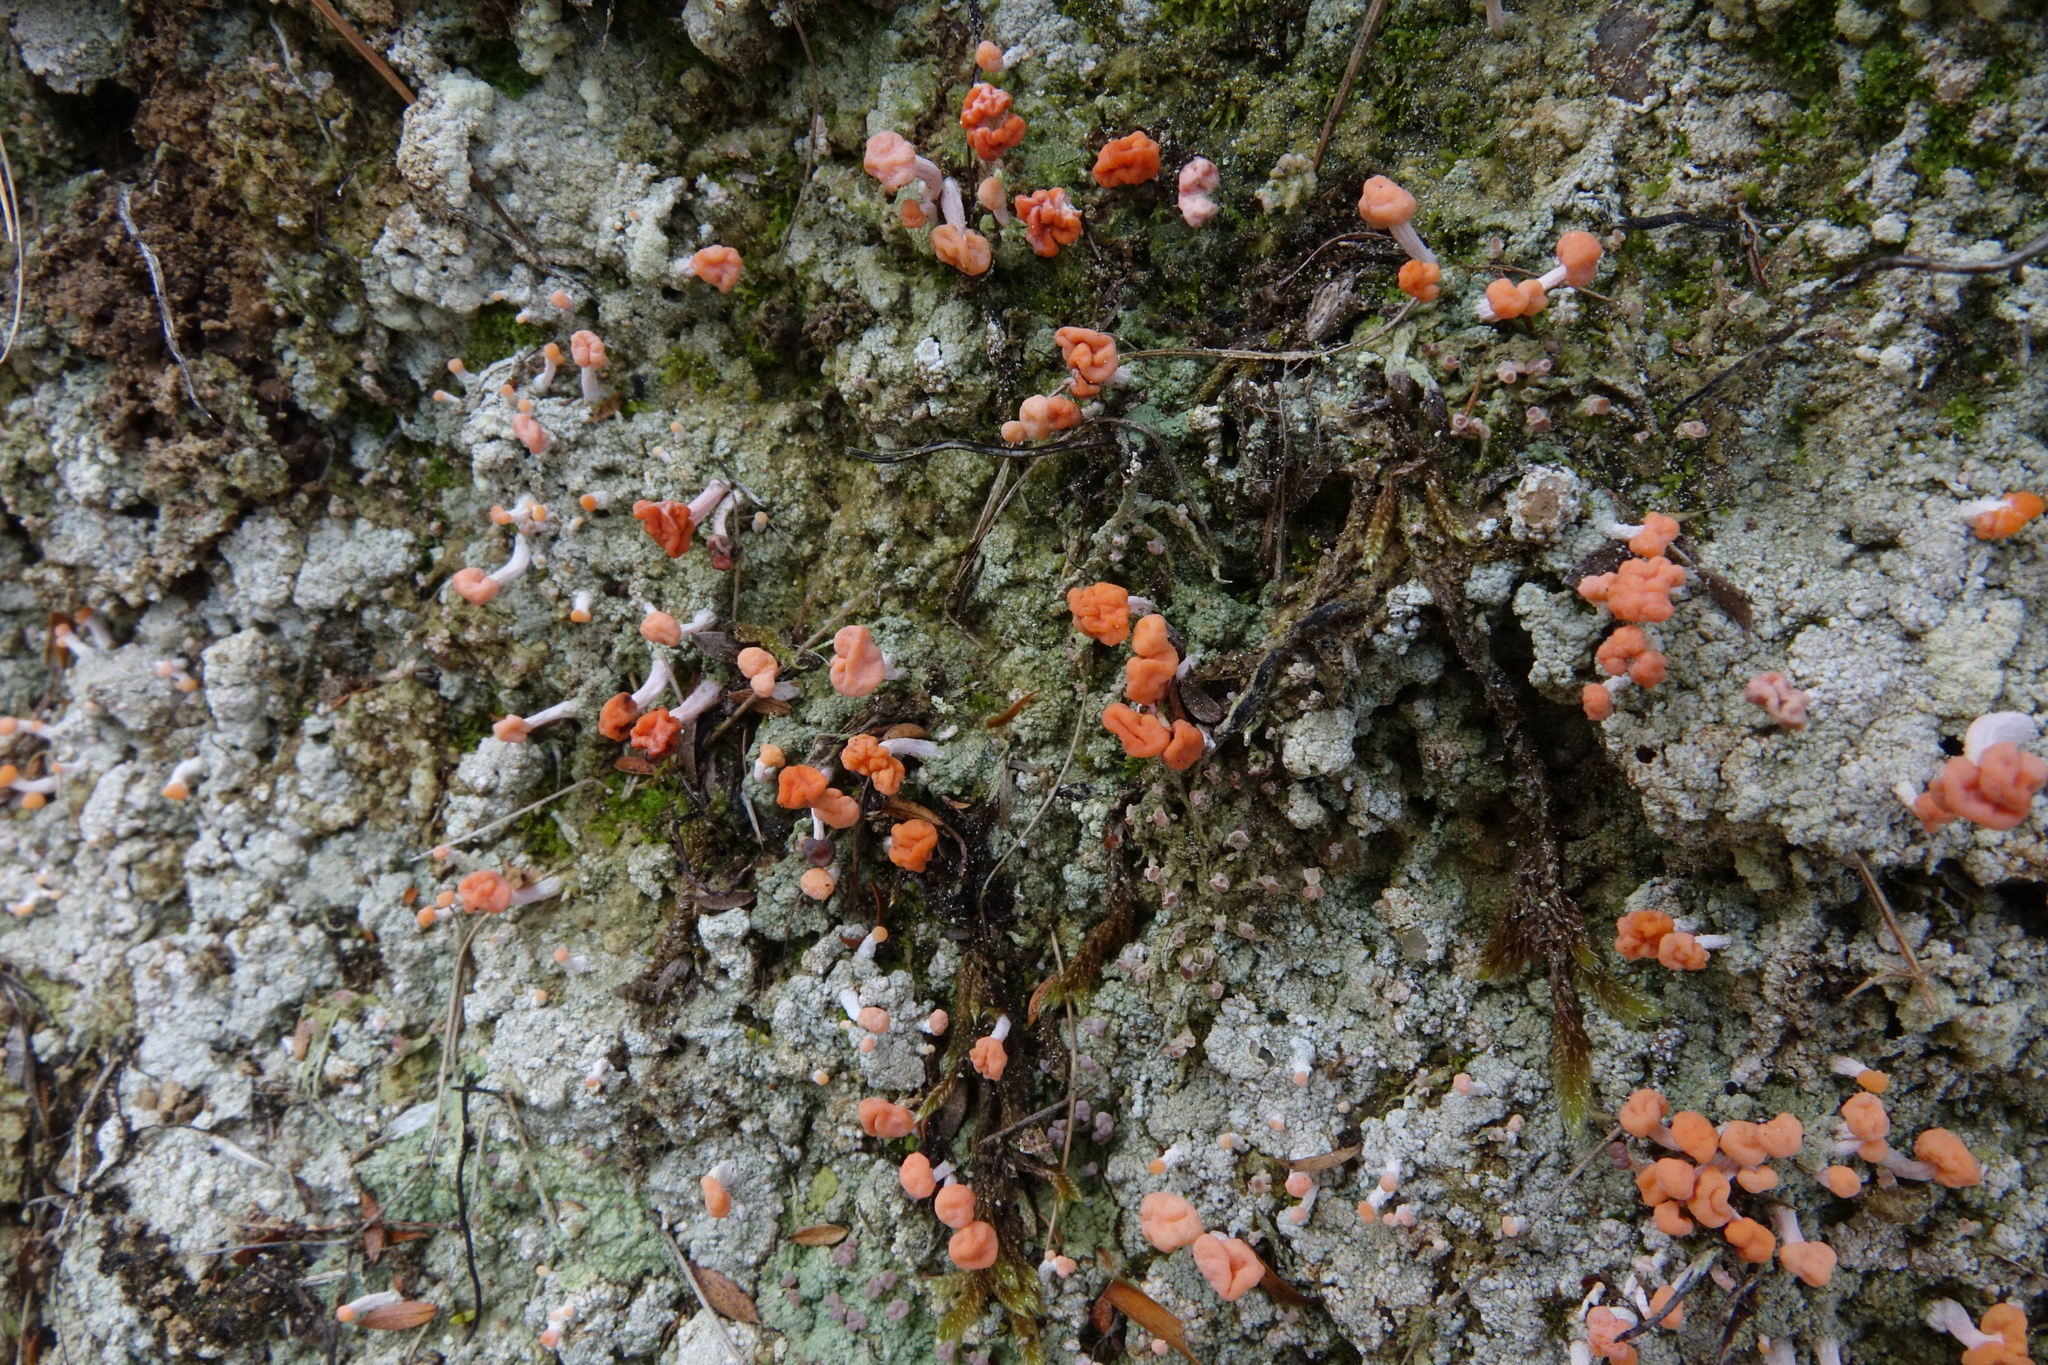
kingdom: Fungi
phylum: Ascomycota
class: Lecanoromycetes
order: Pertusariales
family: Icmadophilaceae
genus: Dibaeis
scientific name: Dibaeis arcuata
